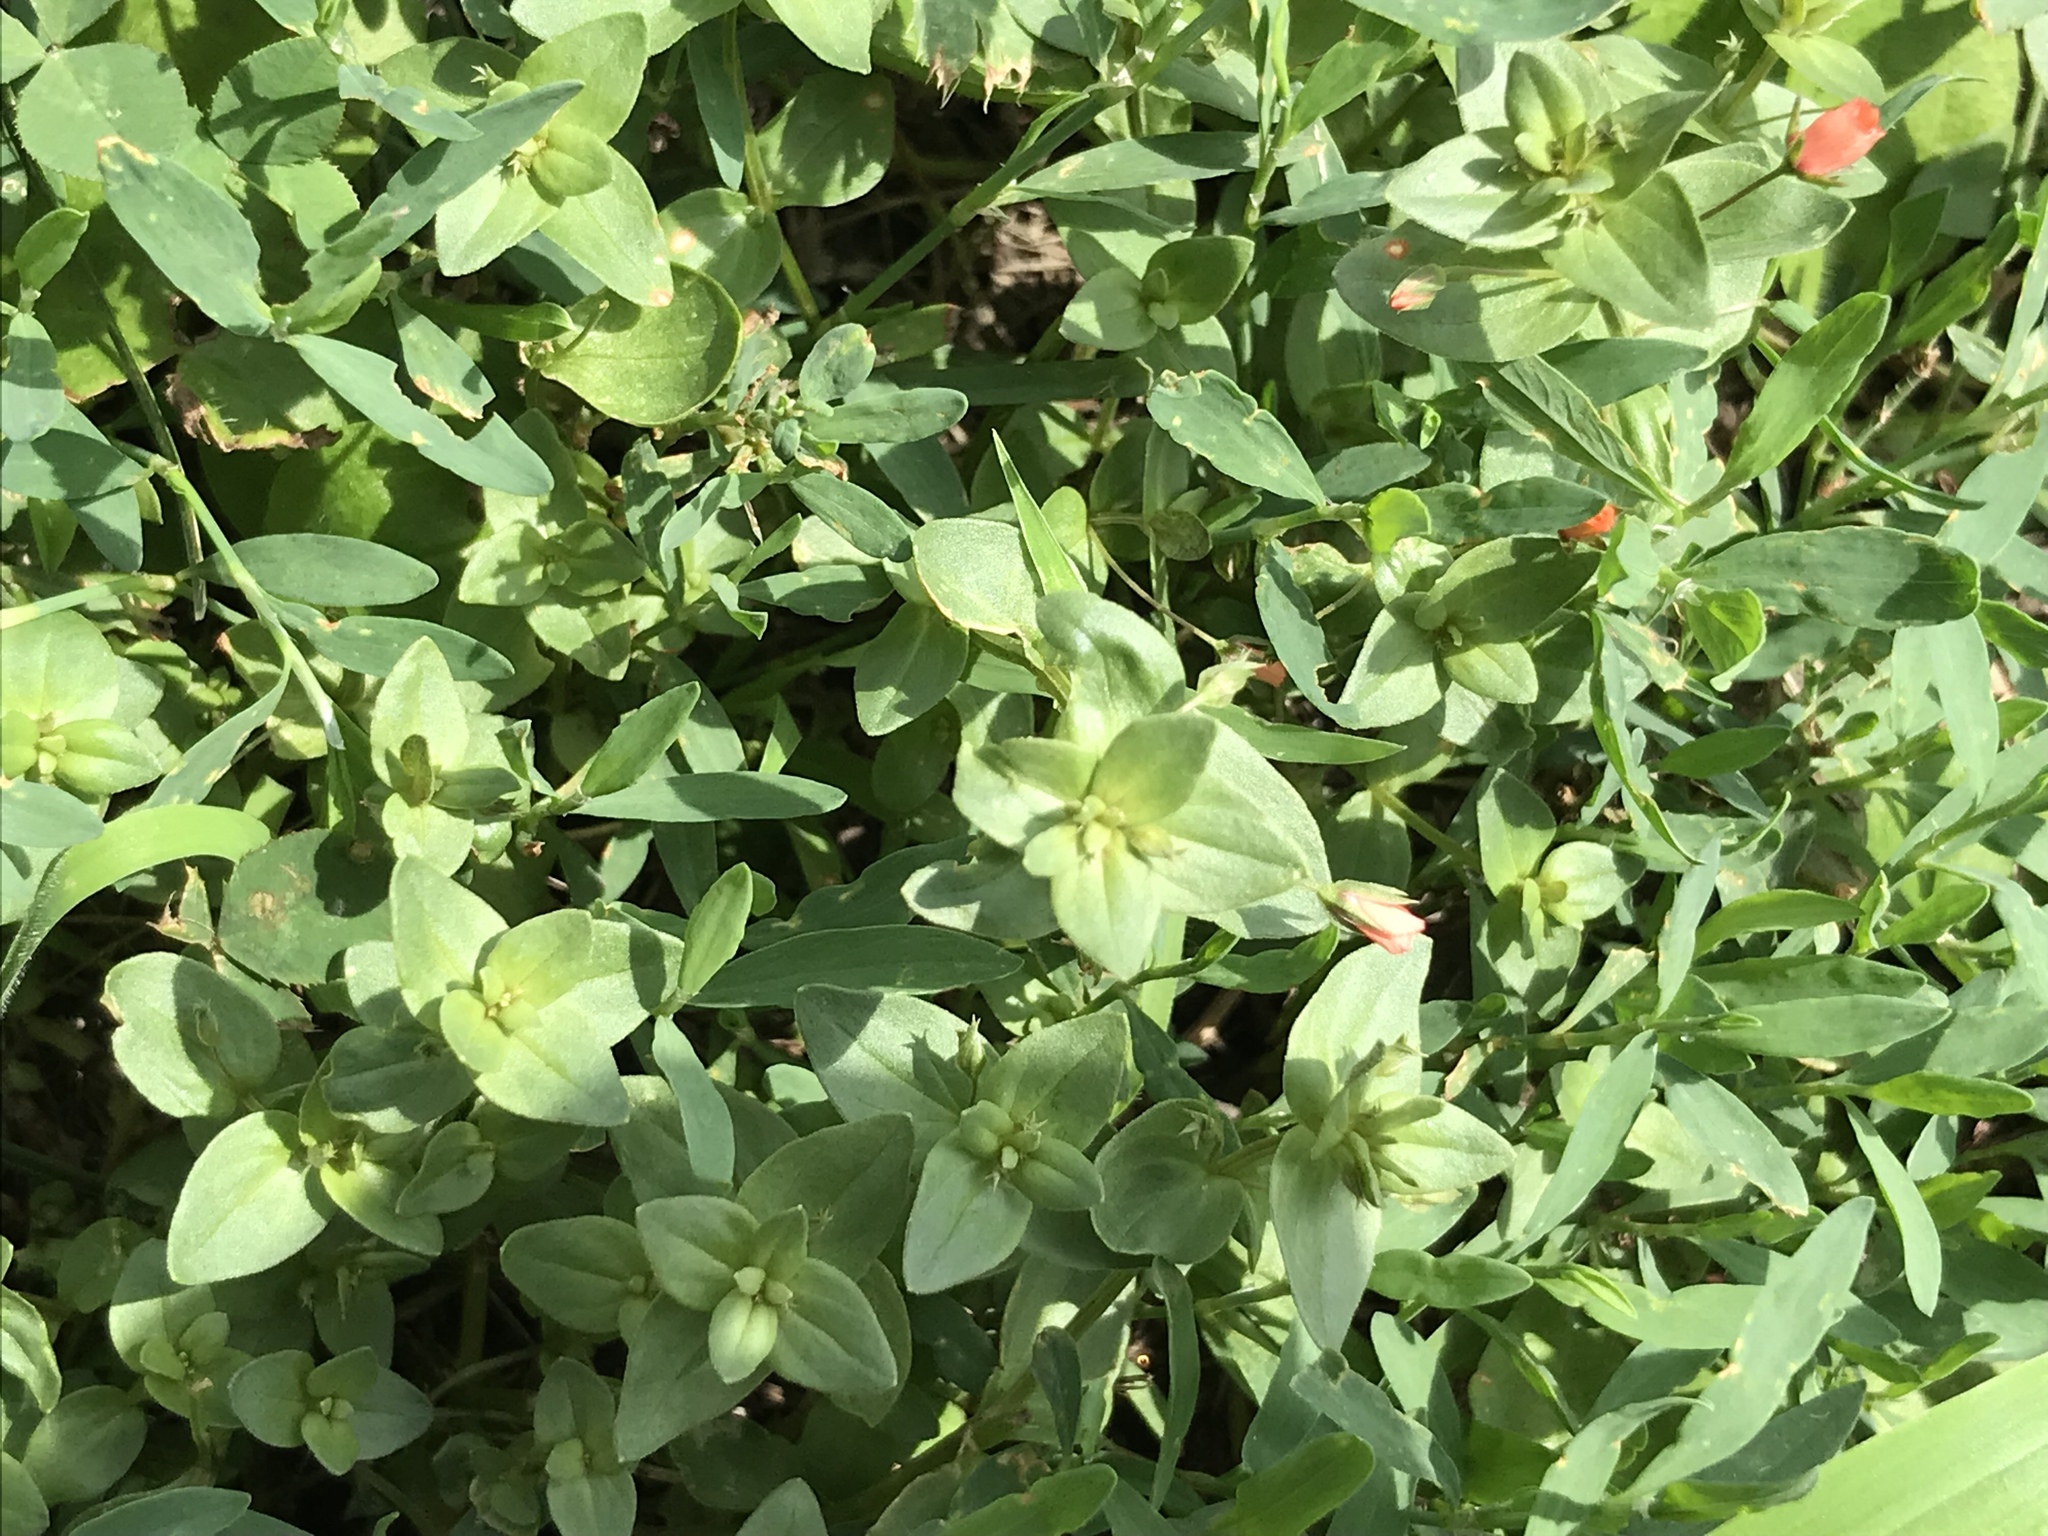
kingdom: Plantae
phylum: Tracheophyta
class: Magnoliopsida
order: Ericales
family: Primulaceae
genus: Lysimachia
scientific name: Lysimachia arvensis
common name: Scarlet pimpernel
